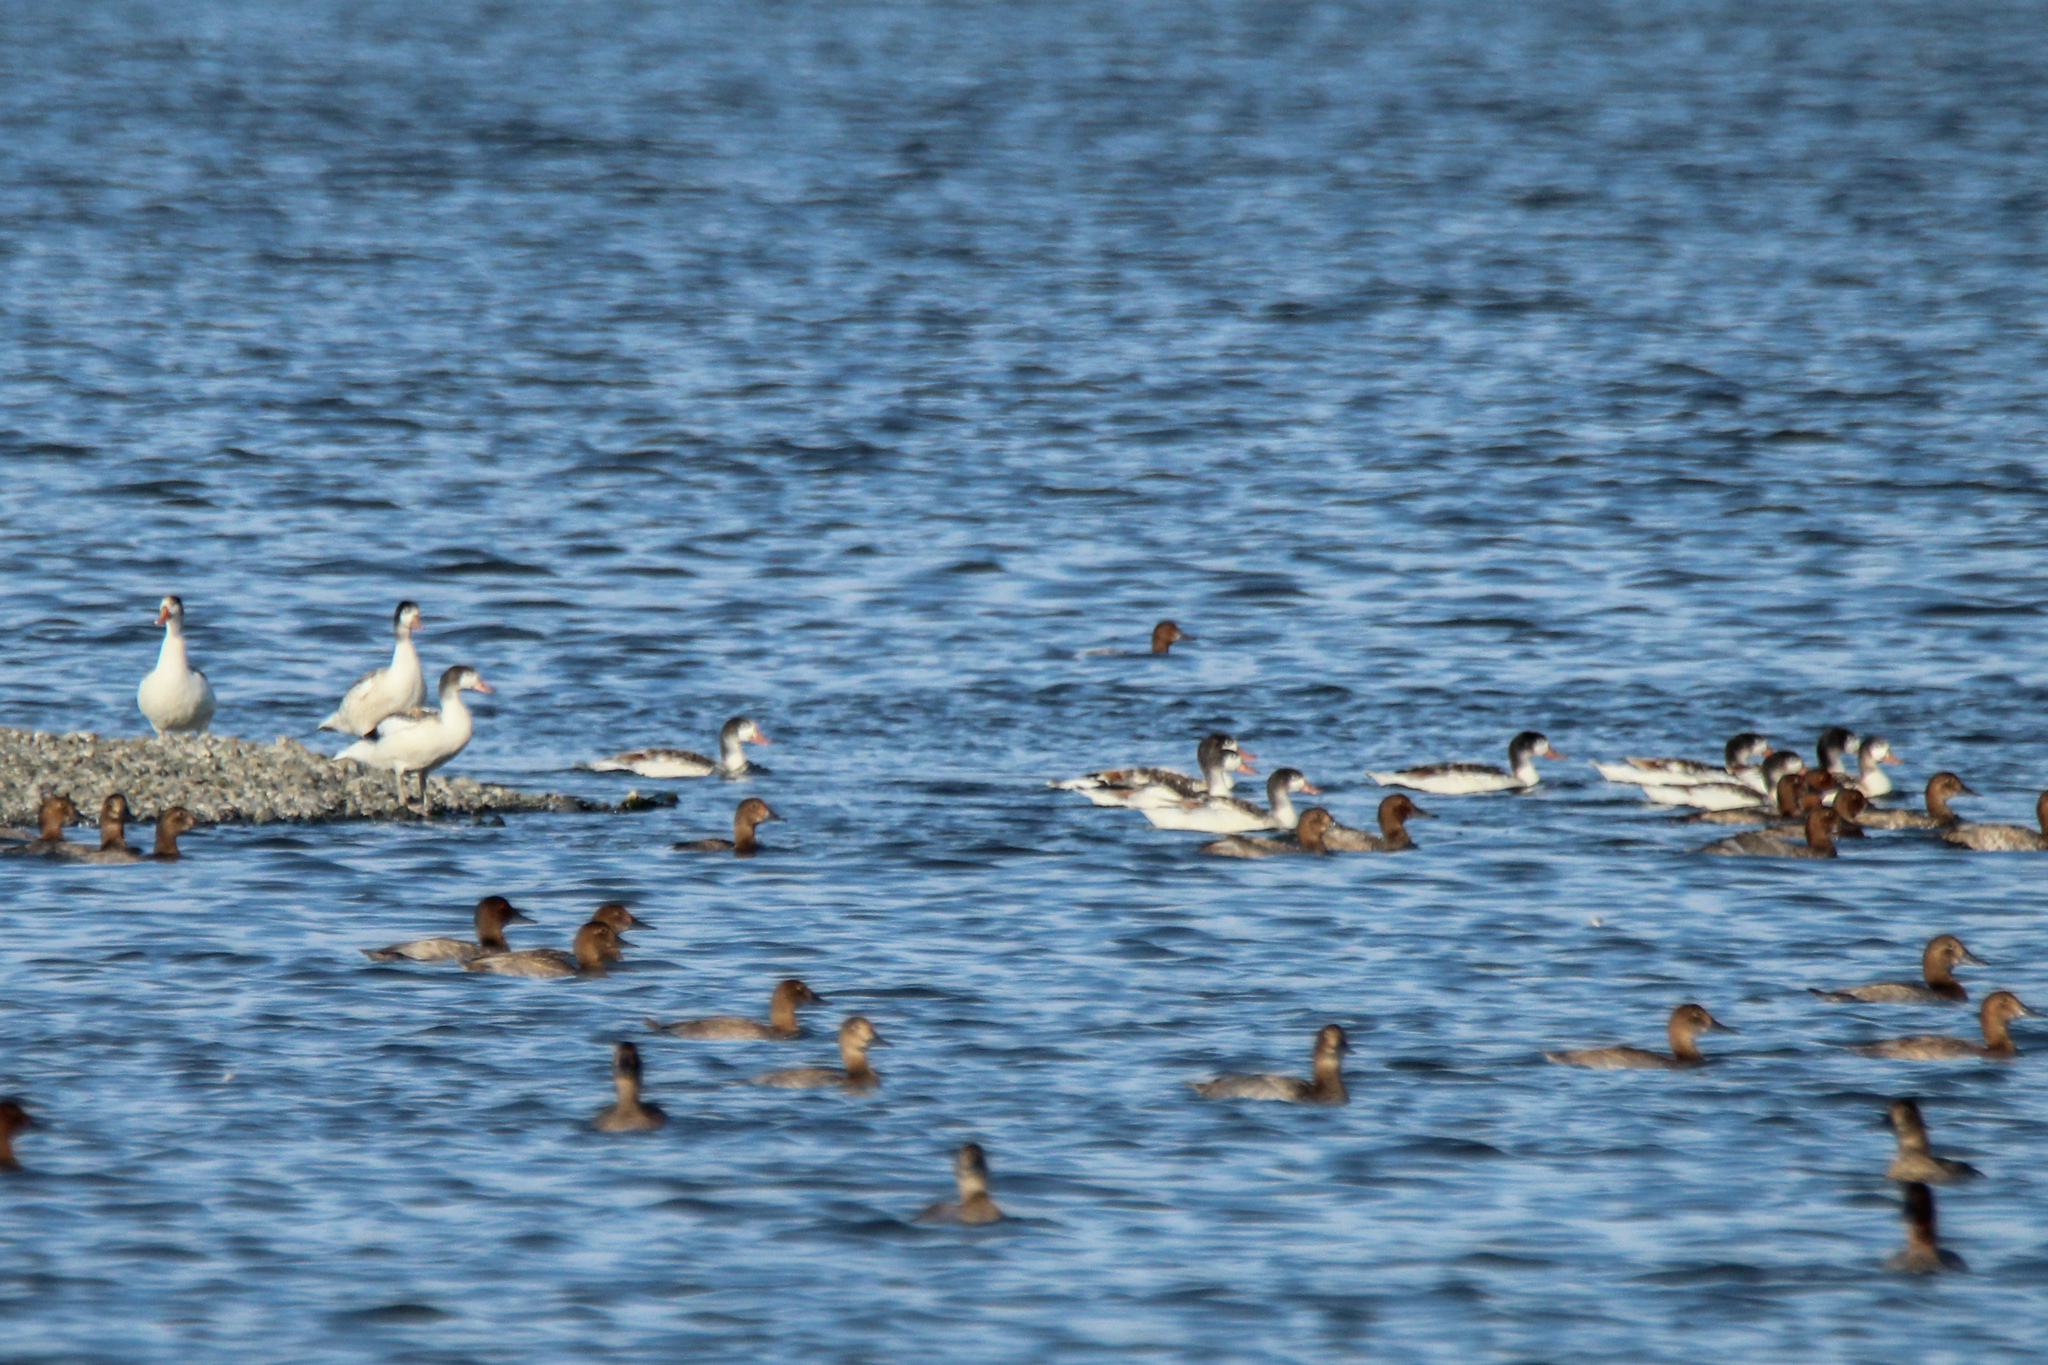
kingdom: Animalia
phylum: Chordata
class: Aves
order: Anseriformes
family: Anatidae
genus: Tadorna
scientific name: Tadorna tadorna
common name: Common shelduck
